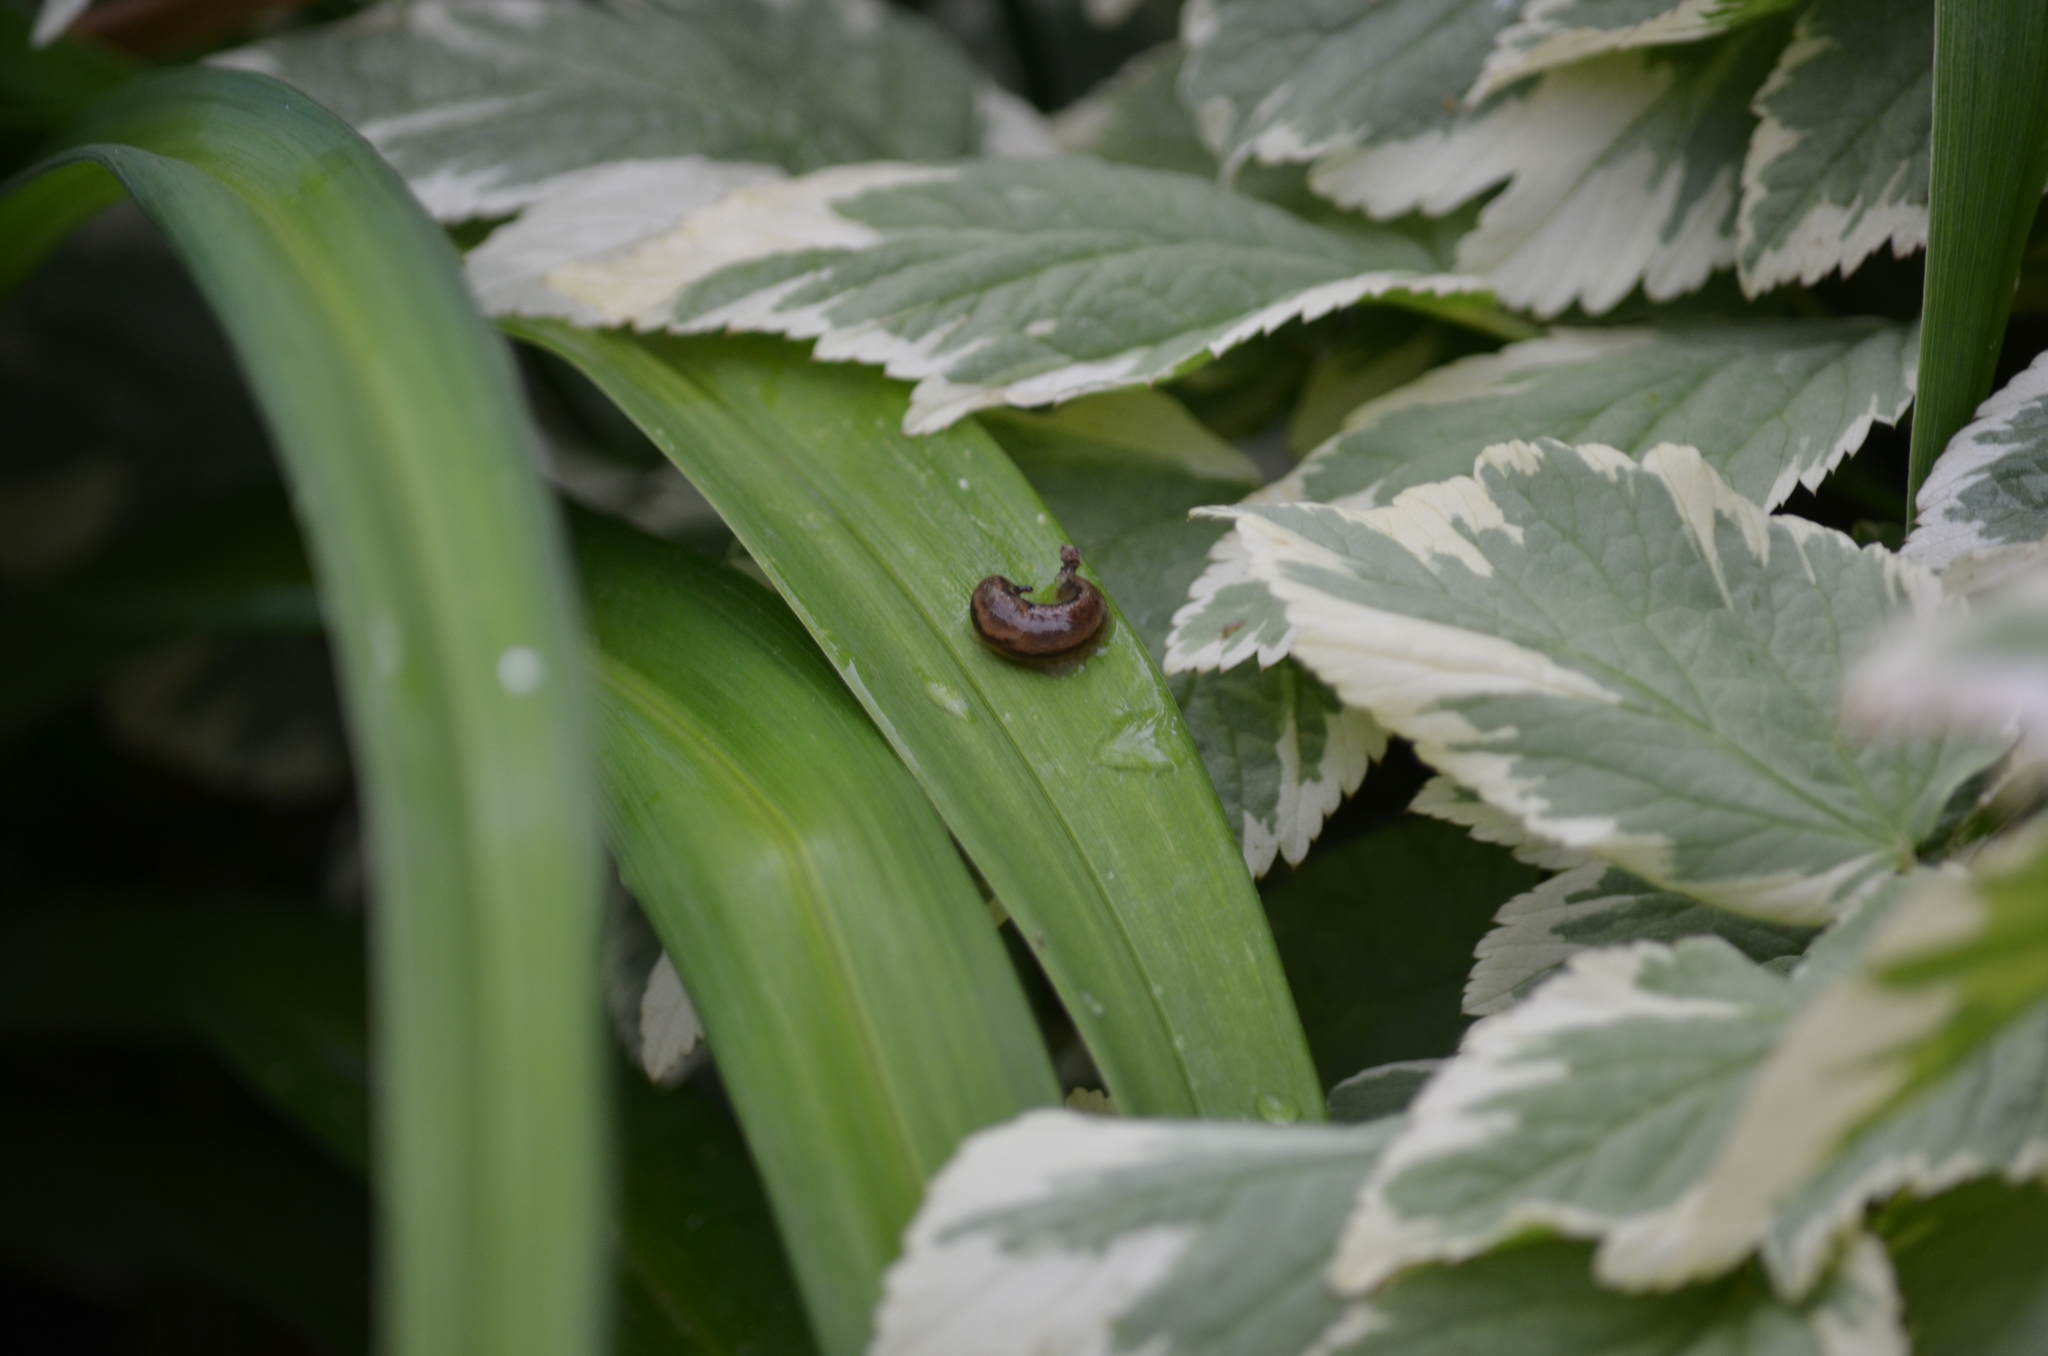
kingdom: Animalia
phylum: Mollusca
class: Gastropoda
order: Stylommatophora
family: Arionidae
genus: Arion
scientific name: Arion subfuscus
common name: Dusky arion
